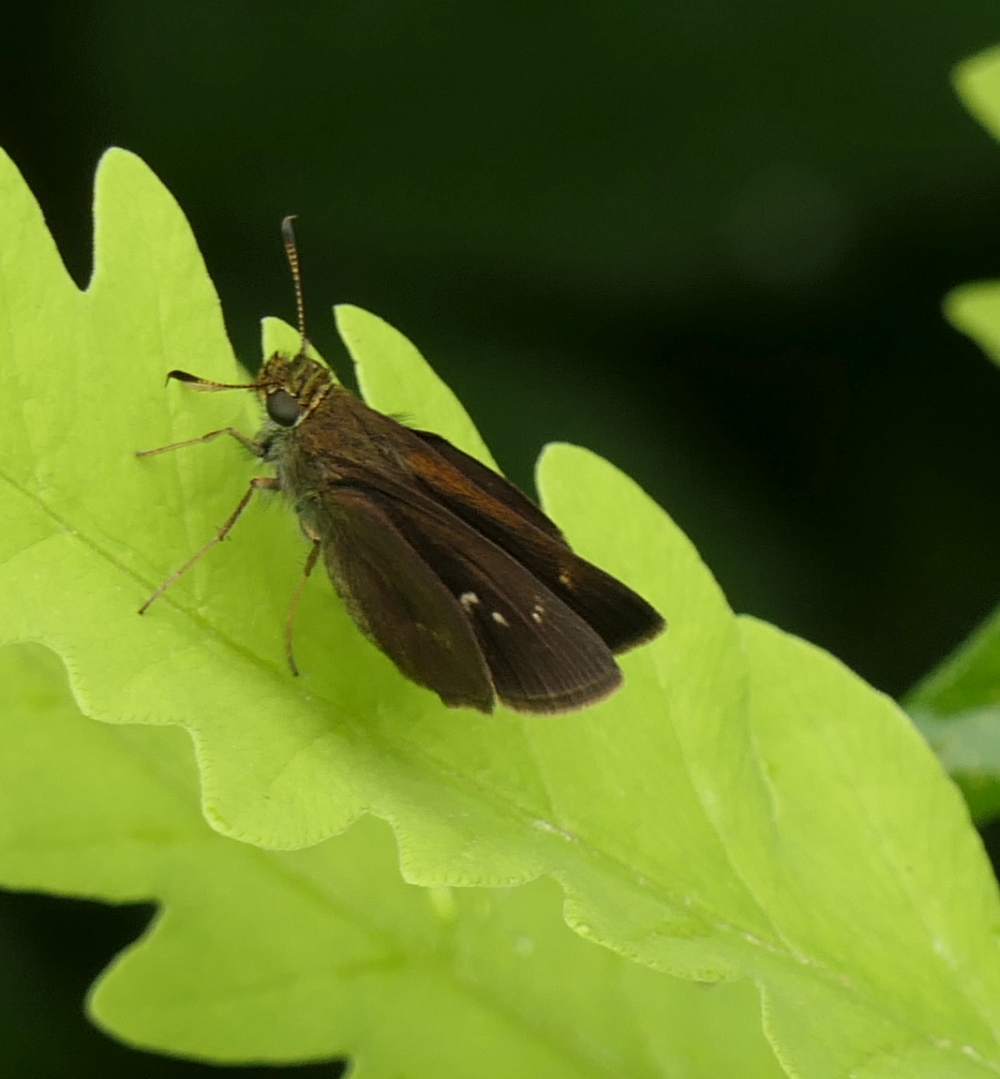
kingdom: Animalia
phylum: Arthropoda
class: Insecta
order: Lepidoptera
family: Hesperiidae
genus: Euphyes
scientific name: Euphyes vestris
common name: Dun skipper
